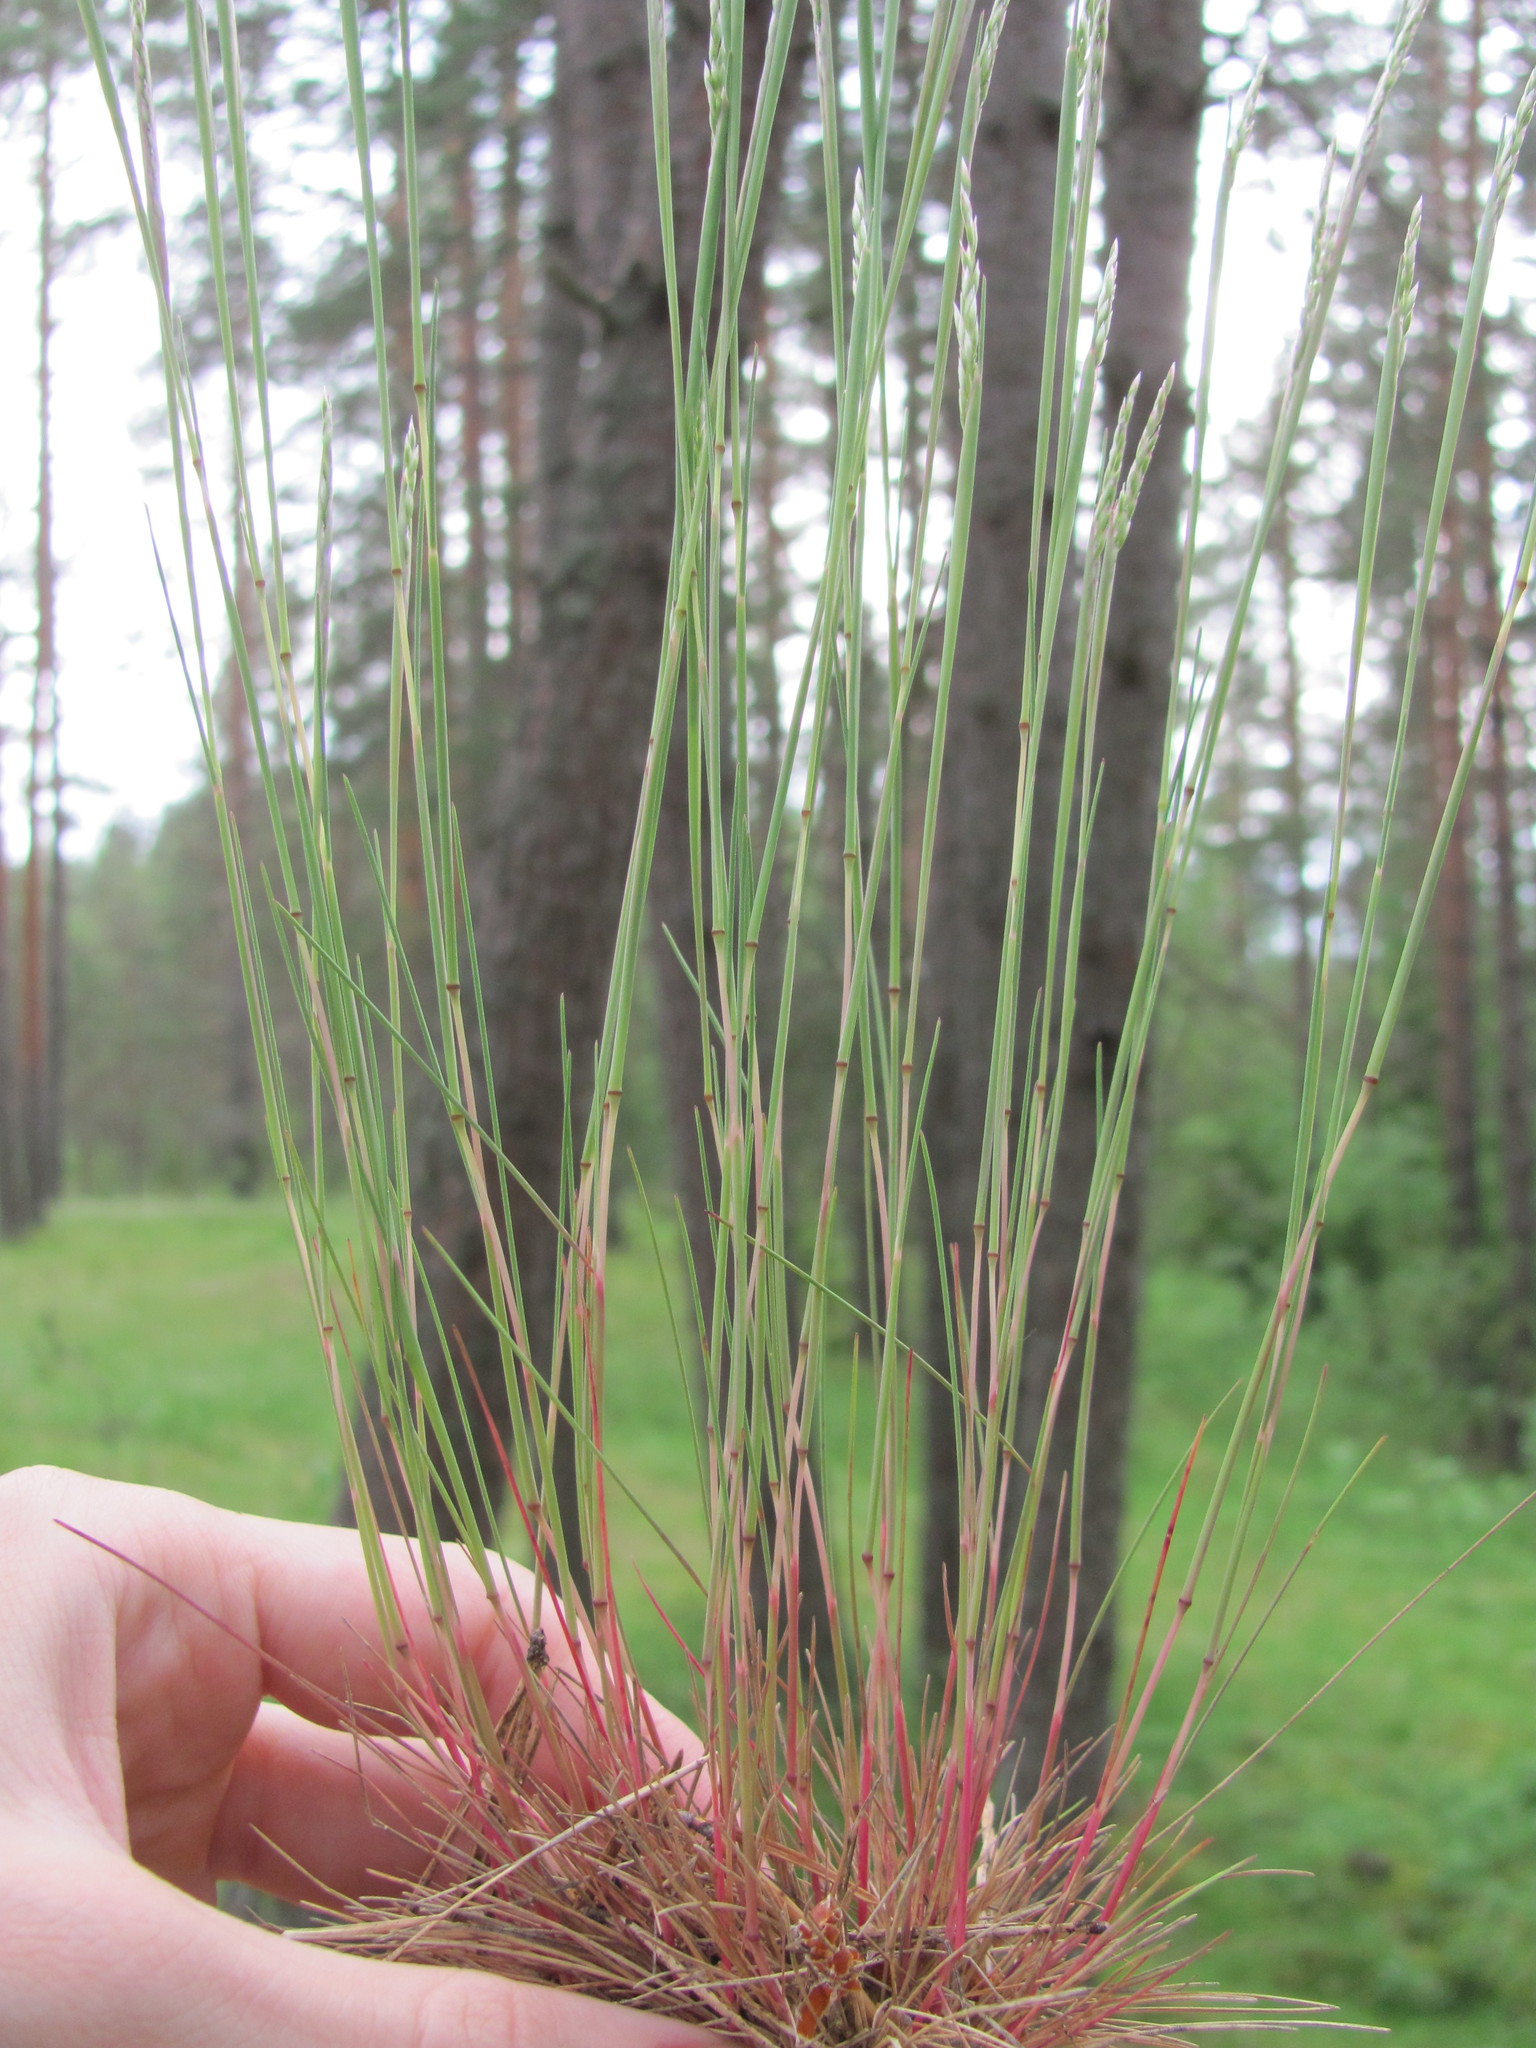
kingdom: Plantae
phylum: Tracheophyta
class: Liliopsida
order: Poales
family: Poaceae
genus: Corynephorus
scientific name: Corynephorus canescens
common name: Grey hair-grass
